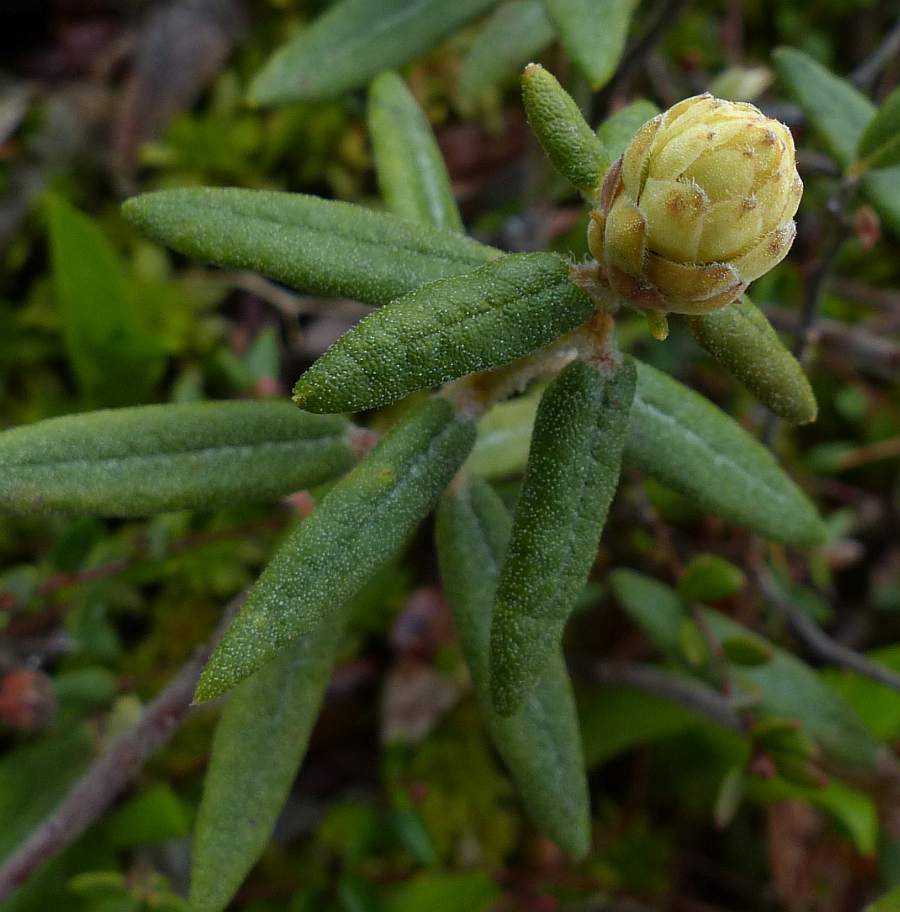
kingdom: Plantae
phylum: Tracheophyta
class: Magnoliopsida
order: Ericales
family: Ericaceae
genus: Rhododendron
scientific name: Rhododendron groenlandicum
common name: Bog labrador tea
